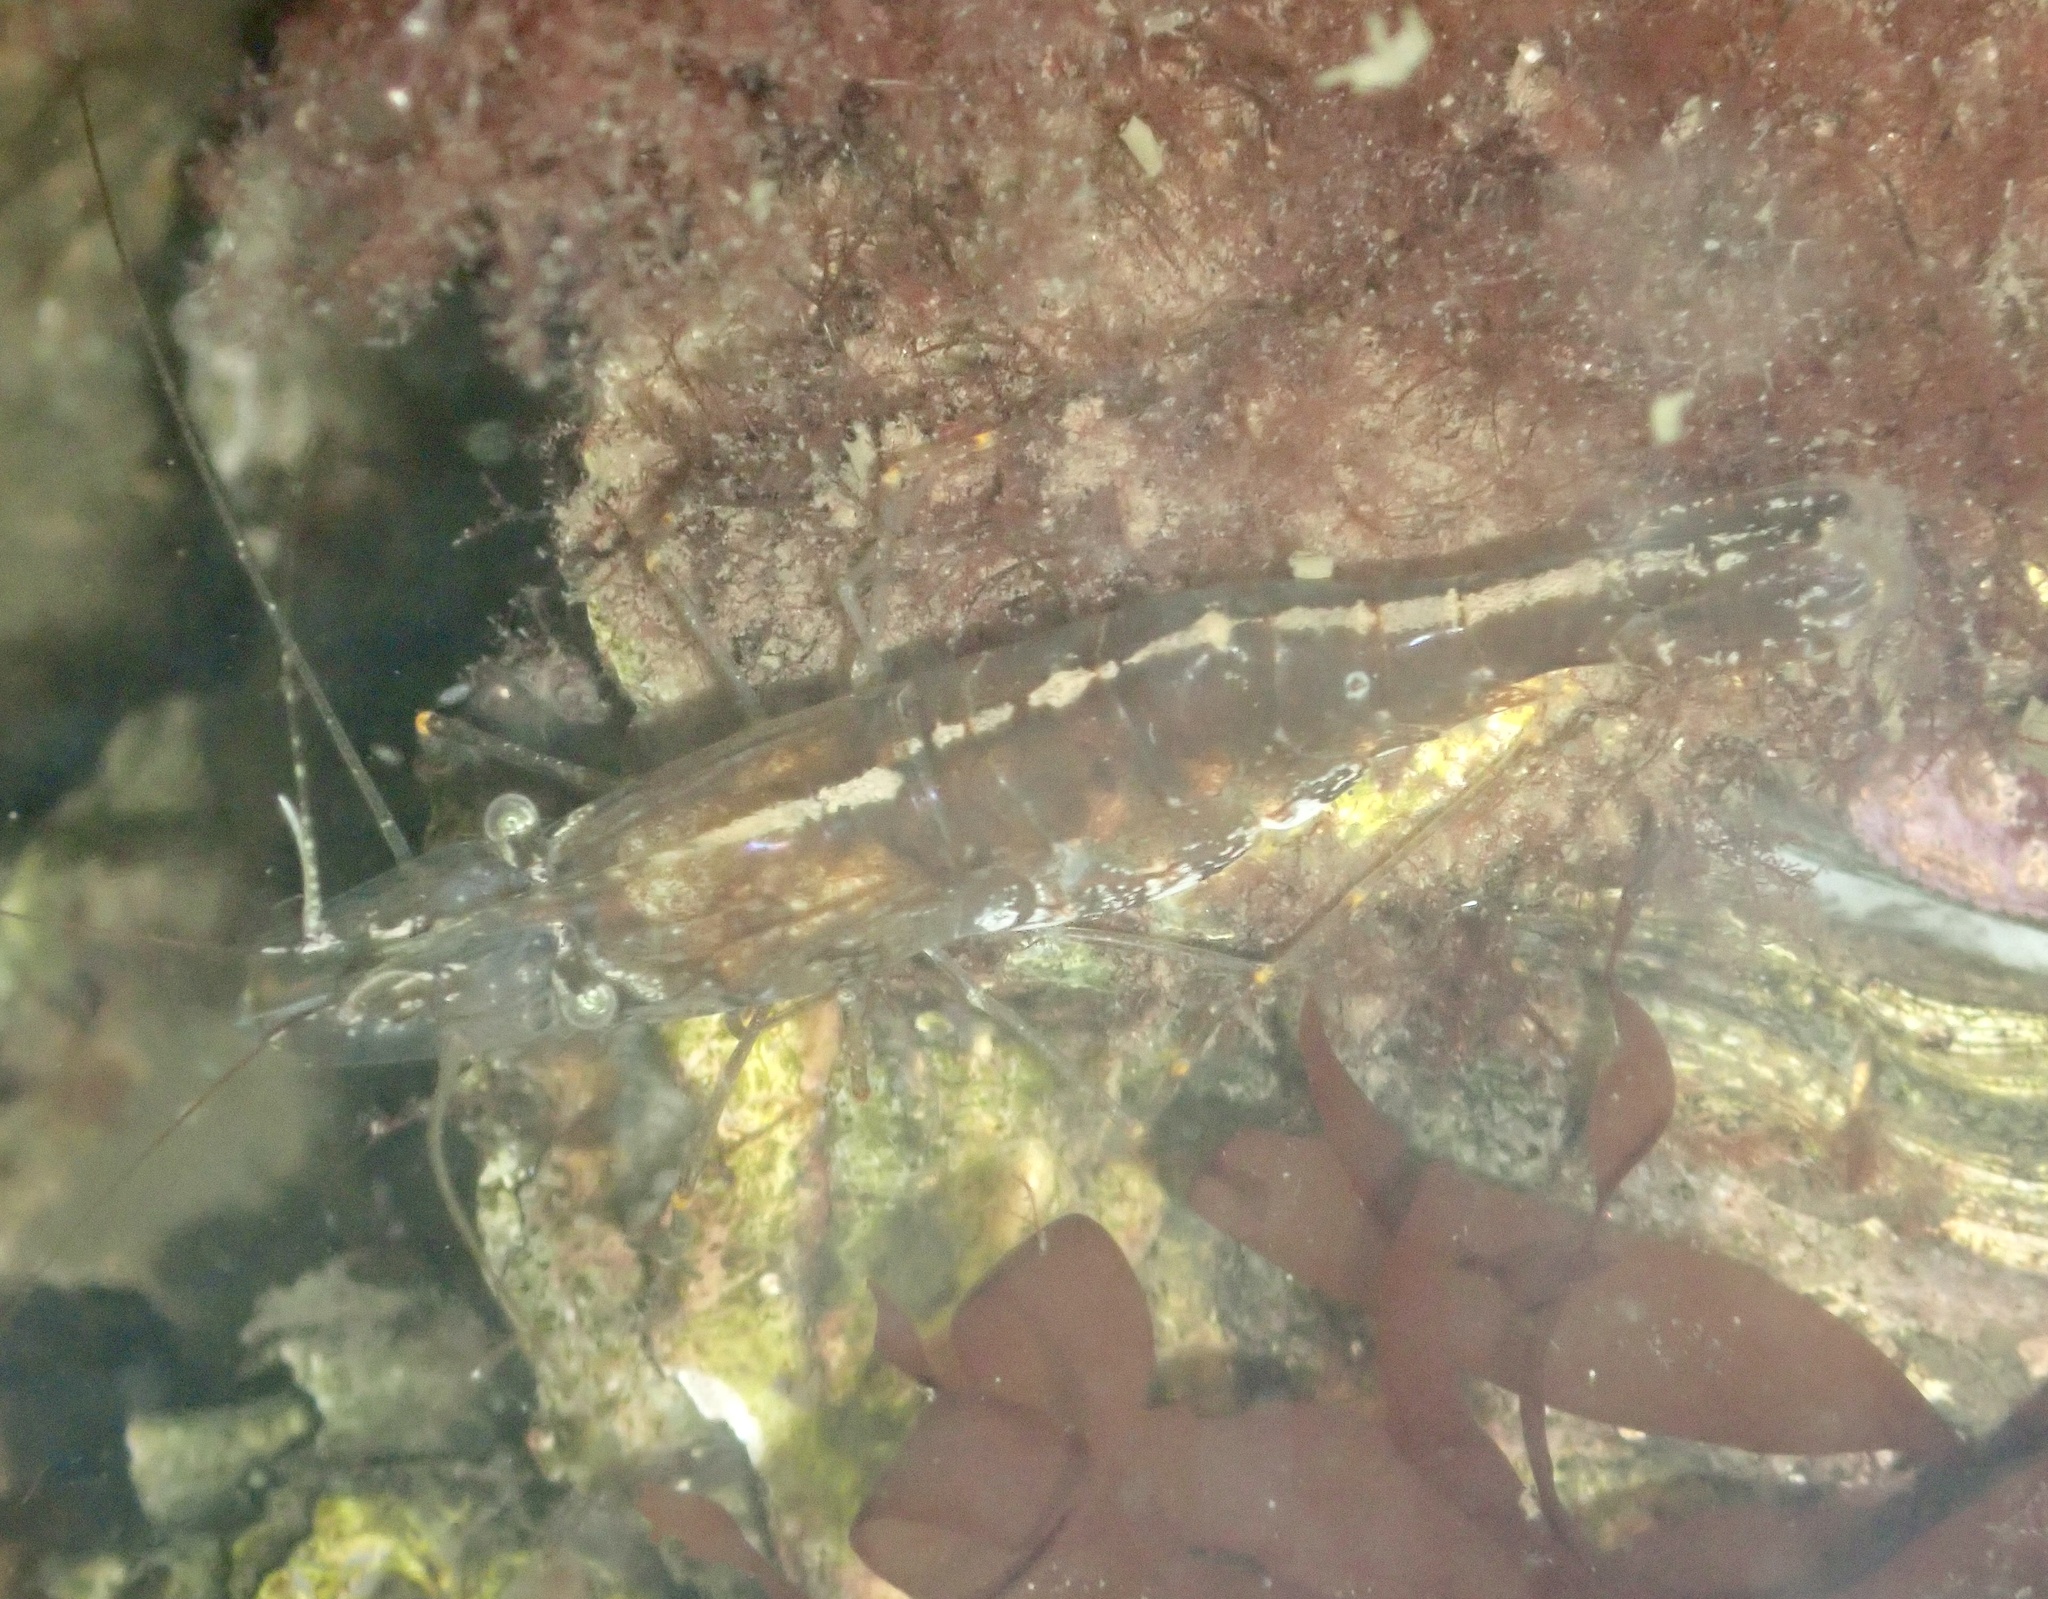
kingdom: Animalia
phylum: Arthropoda
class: Malacostraca
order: Decapoda
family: Palaemonidae
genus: Palaemon
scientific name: Palaemon macrodactylus
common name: Oriental prawn
